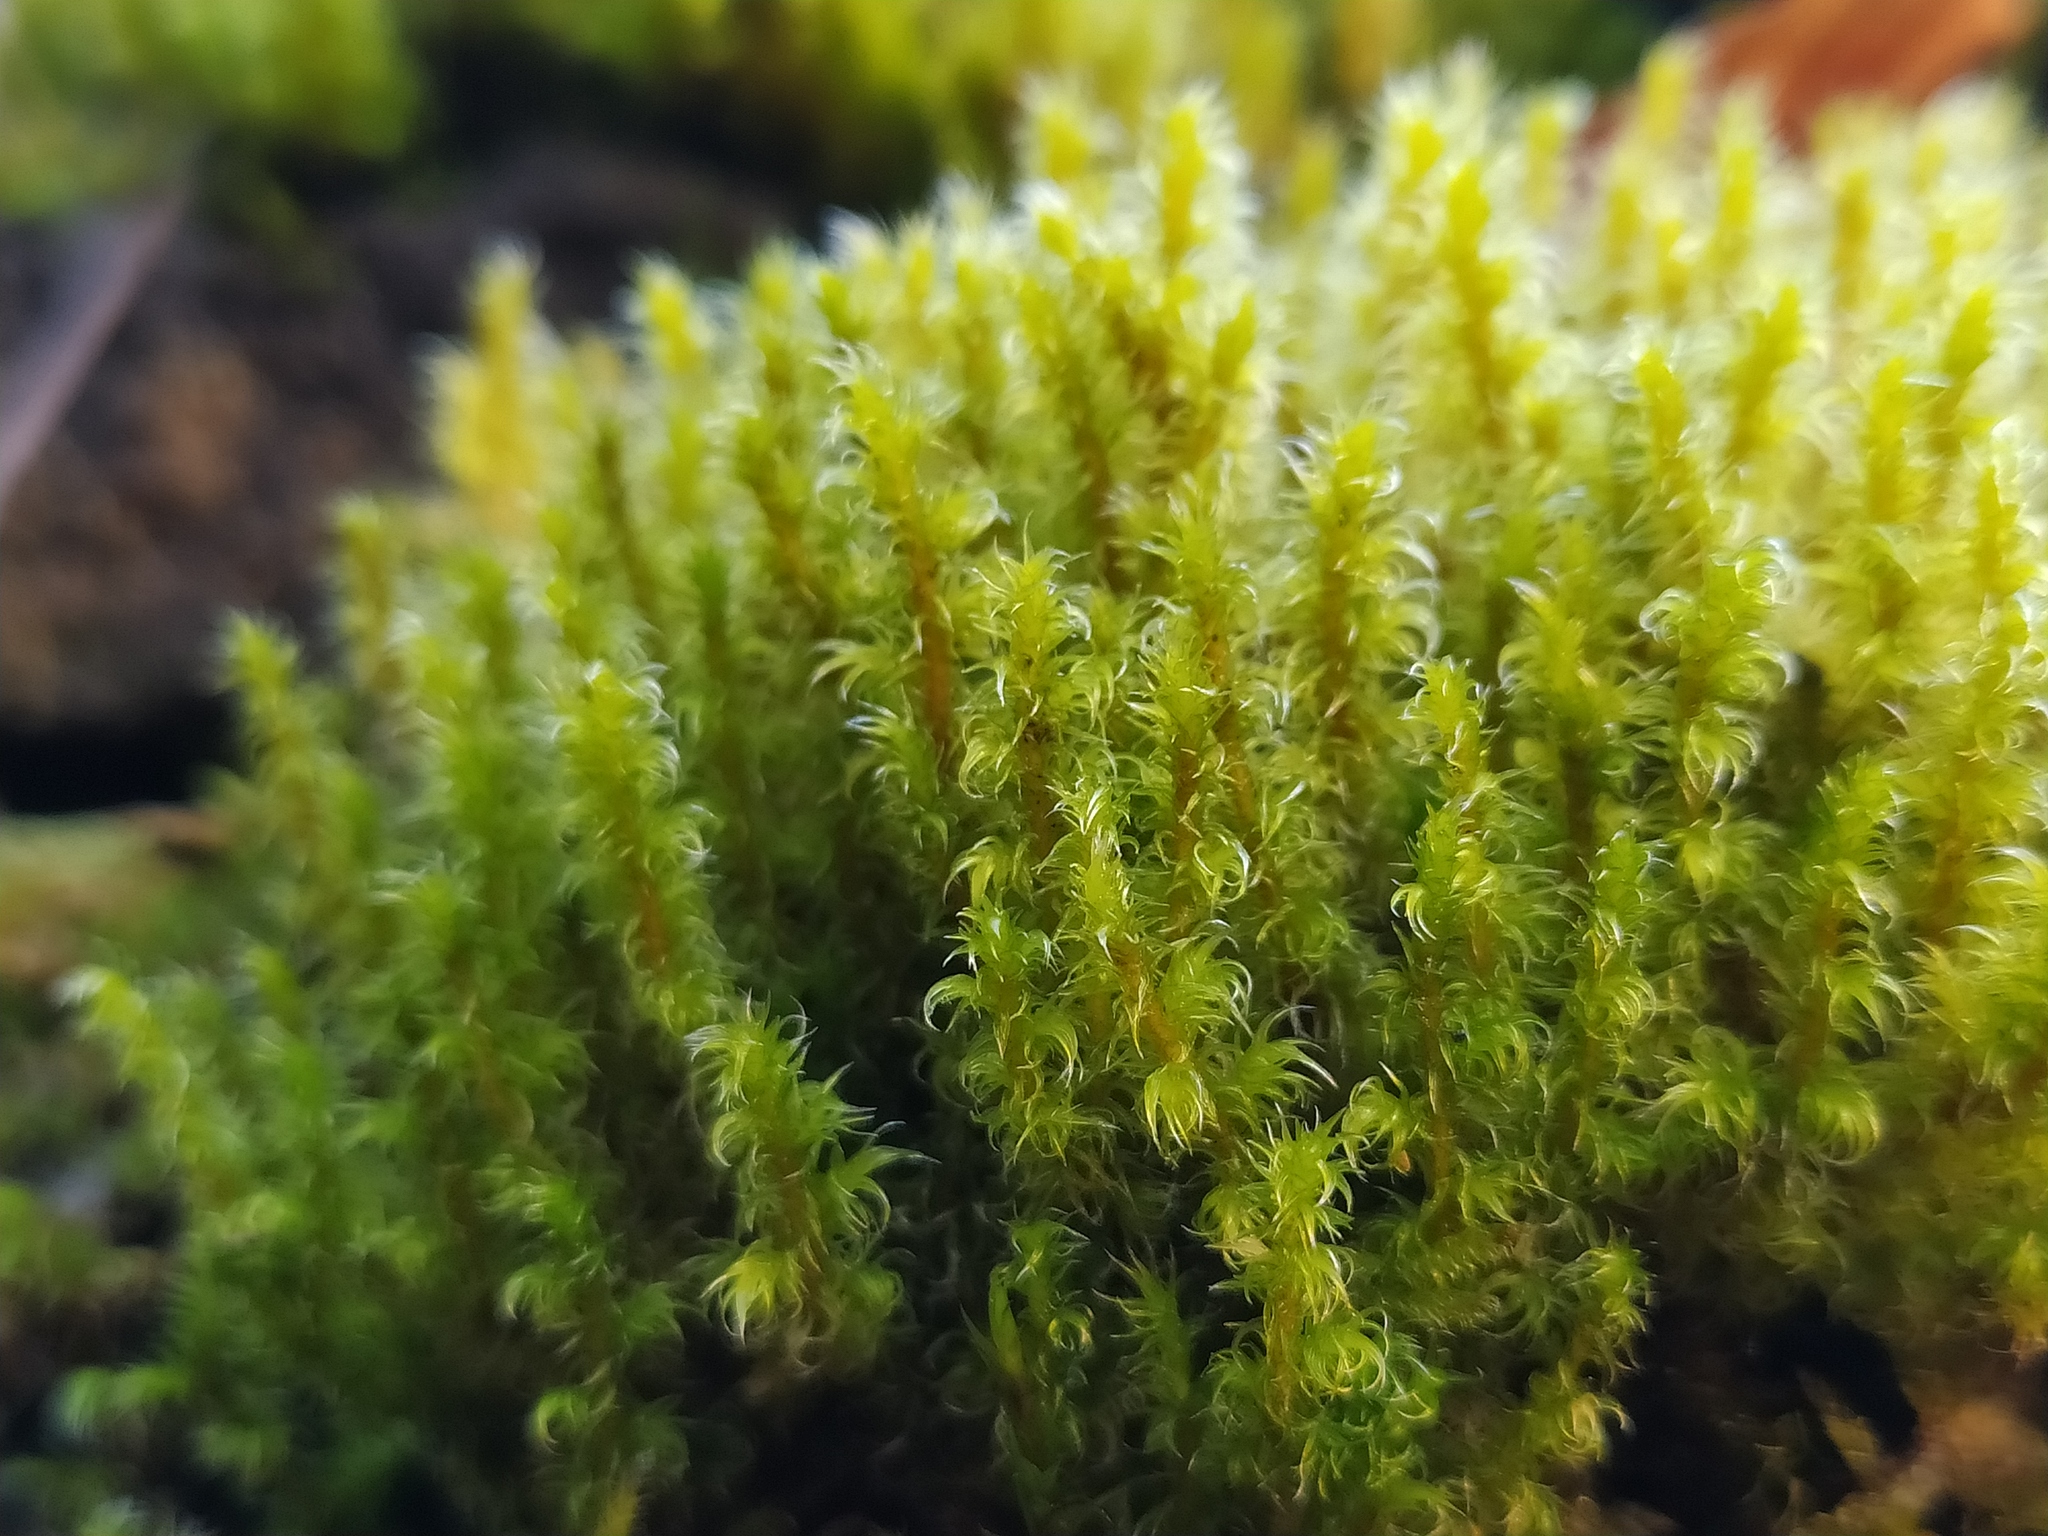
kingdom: Plantae
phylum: Bryophyta
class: Bryopsida
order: Grimmiales
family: Grimmiaceae
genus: Niphotrichum
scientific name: Niphotrichum elongatum
